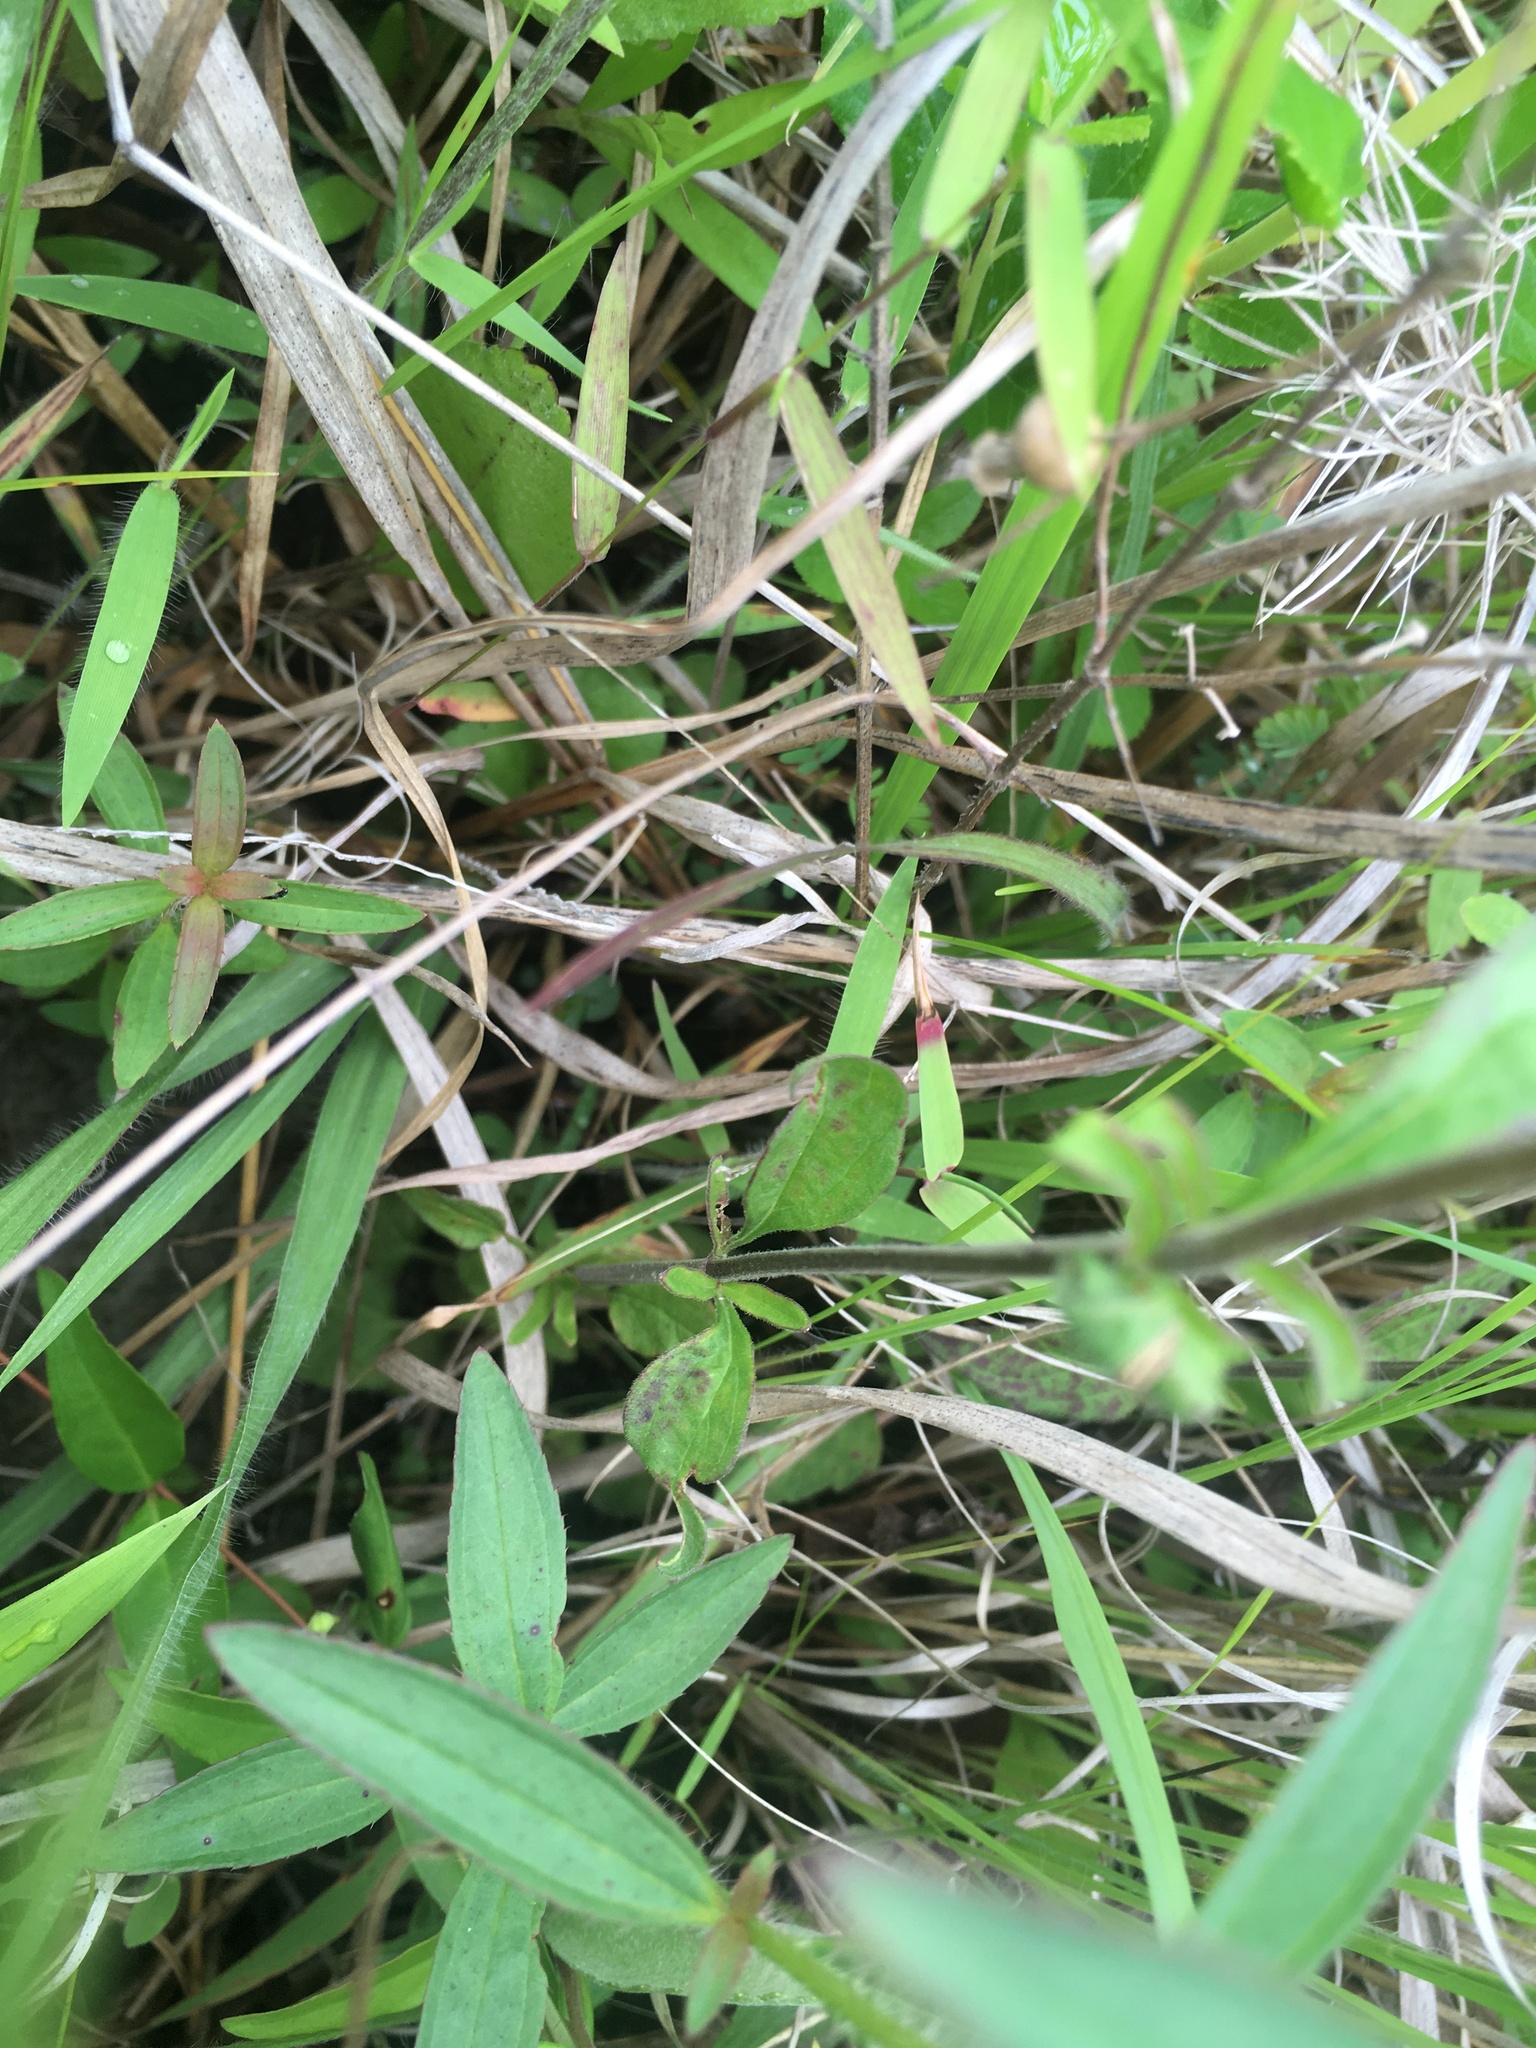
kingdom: Plantae
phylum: Tracheophyta
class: Magnoliopsida
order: Lamiales
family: Lamiaceae
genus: Scutellaria
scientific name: Scutellaria integrifolia
